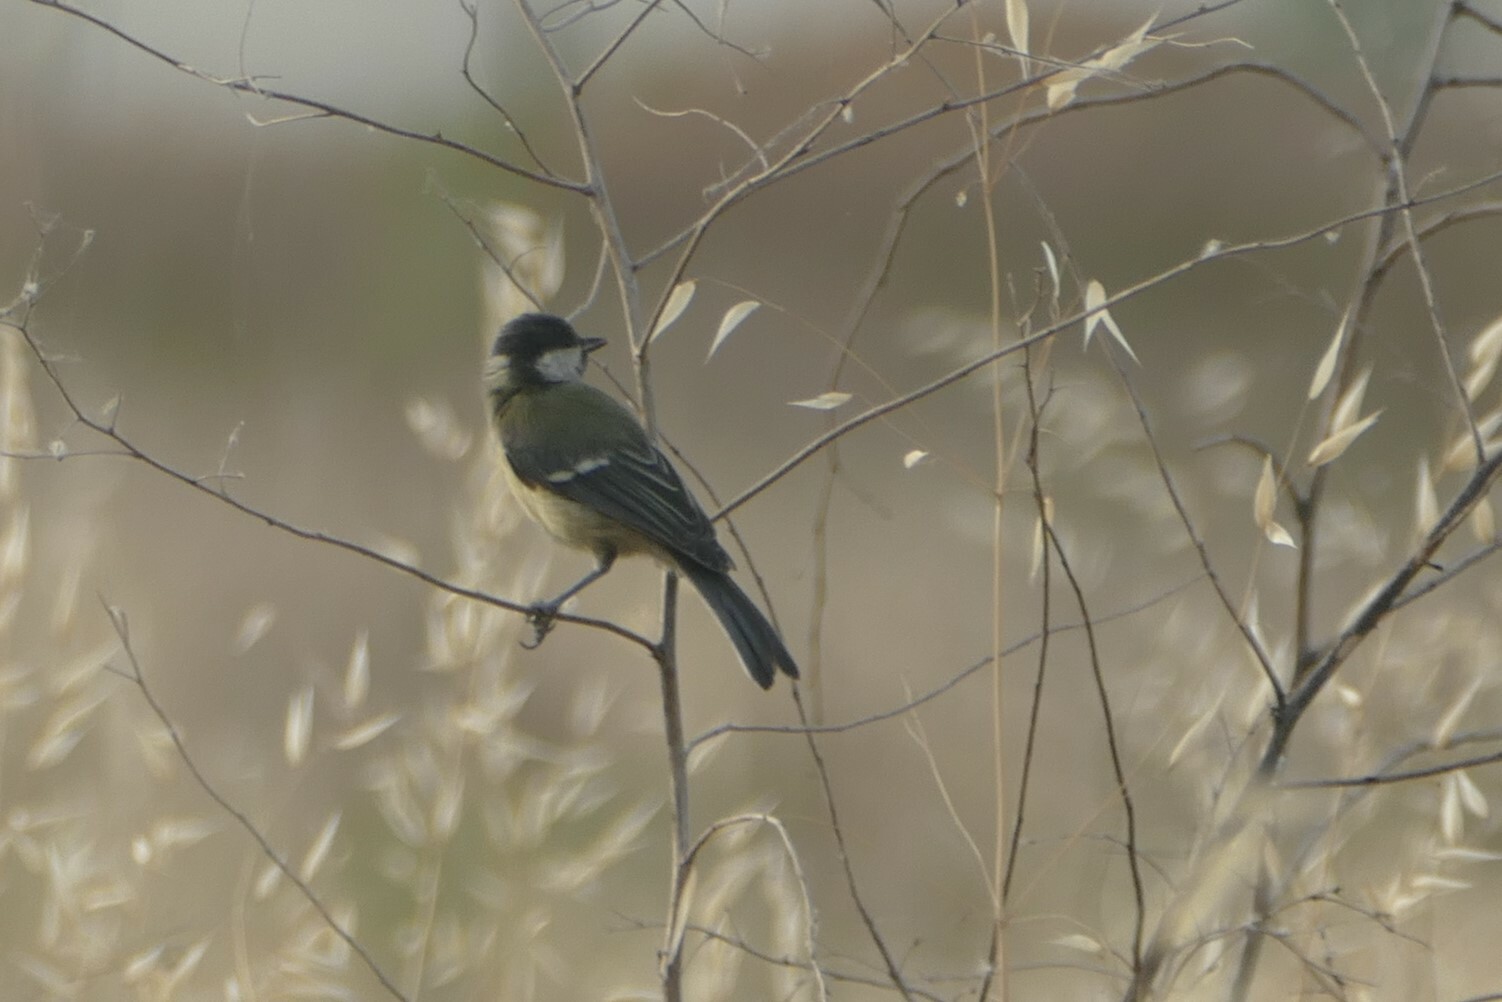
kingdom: Animalia
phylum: Chordata
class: Aves
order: Passeriformes
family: Paridae
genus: Parus
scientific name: Parus major
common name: Great tit
